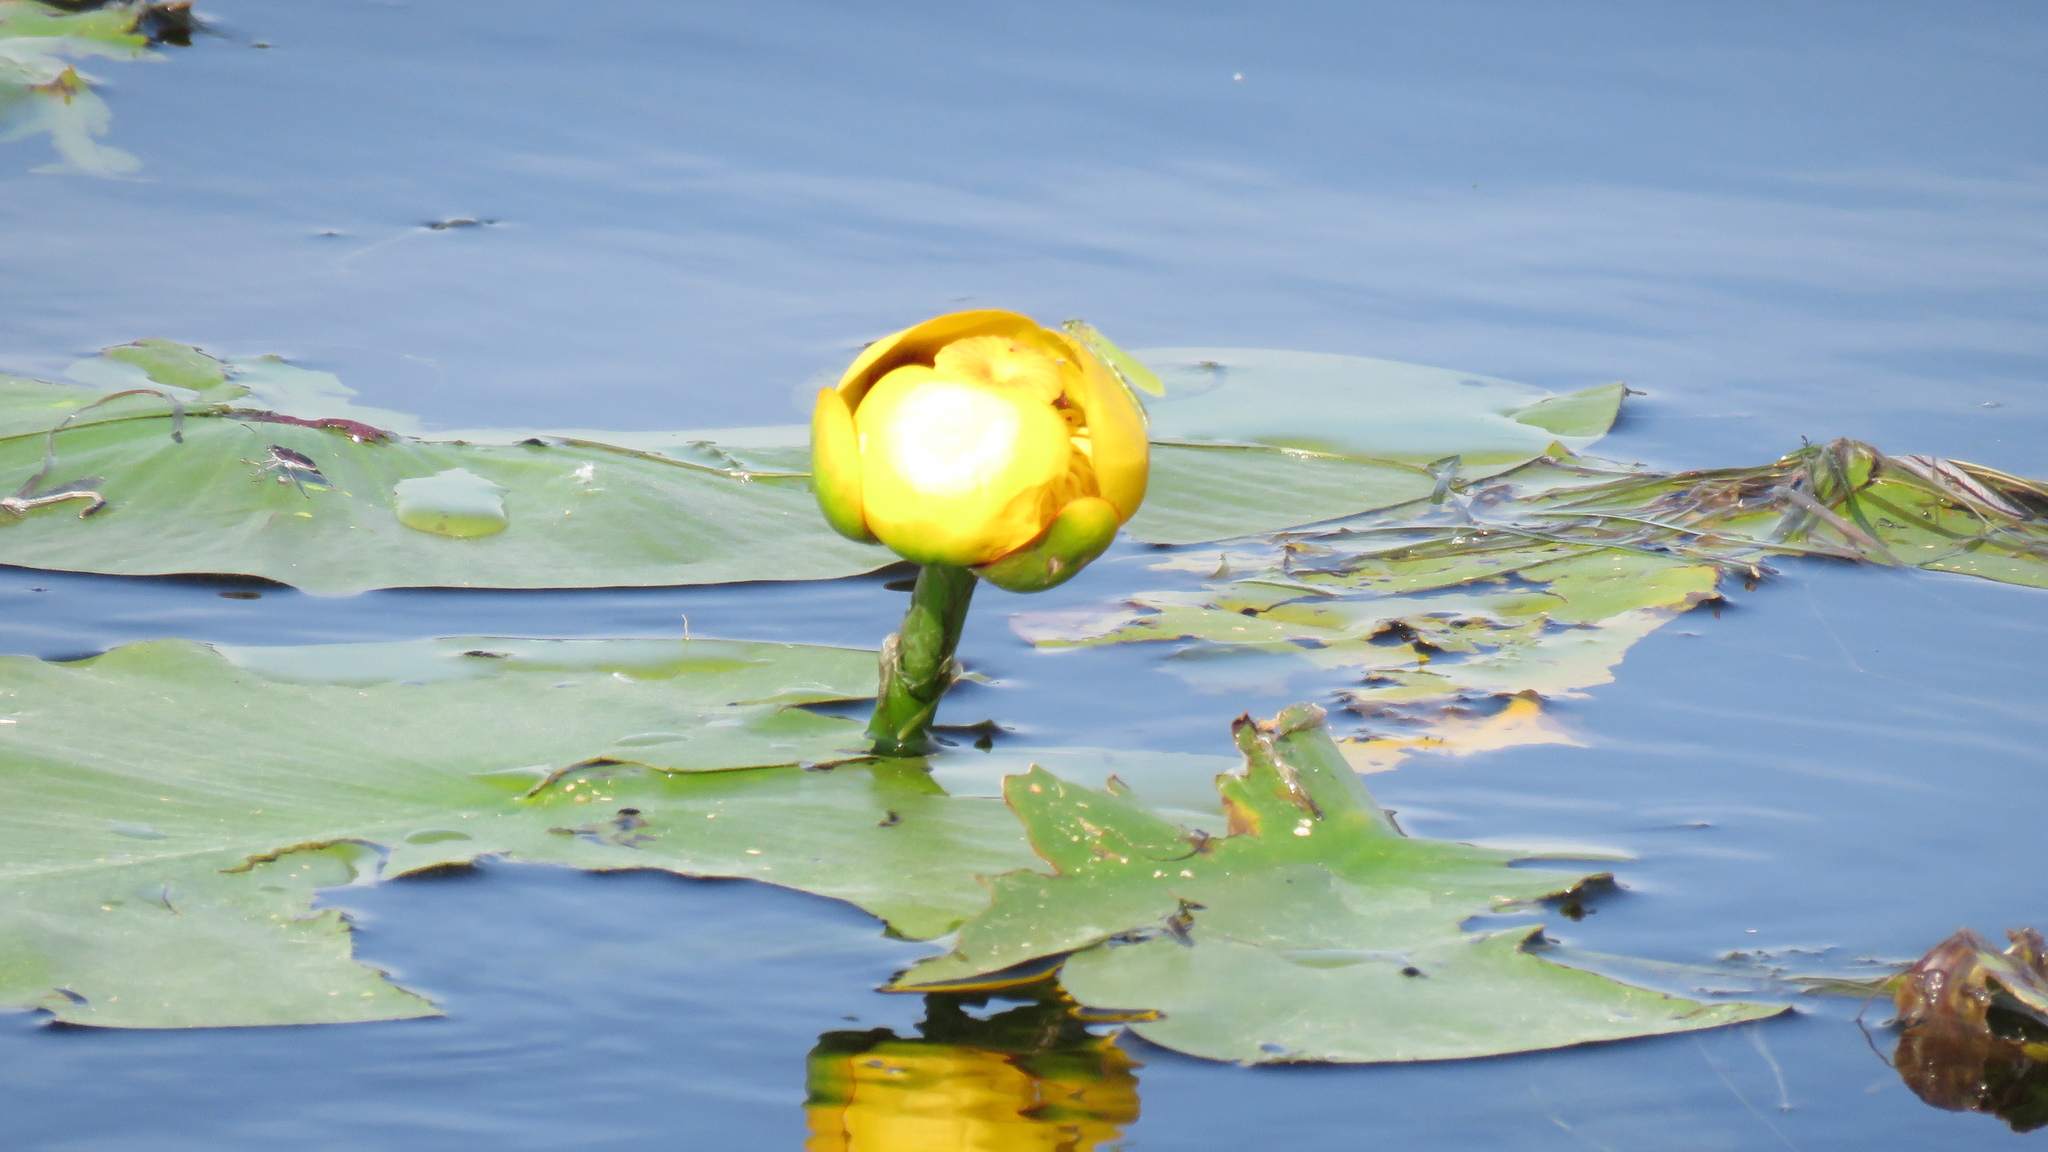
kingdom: Plantae
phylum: Tracheophyta
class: Magnoliopsida
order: Nymphaeales
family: Nymphaeaceae
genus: Nuphar
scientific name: Nuphar variegata
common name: Beaver-root
